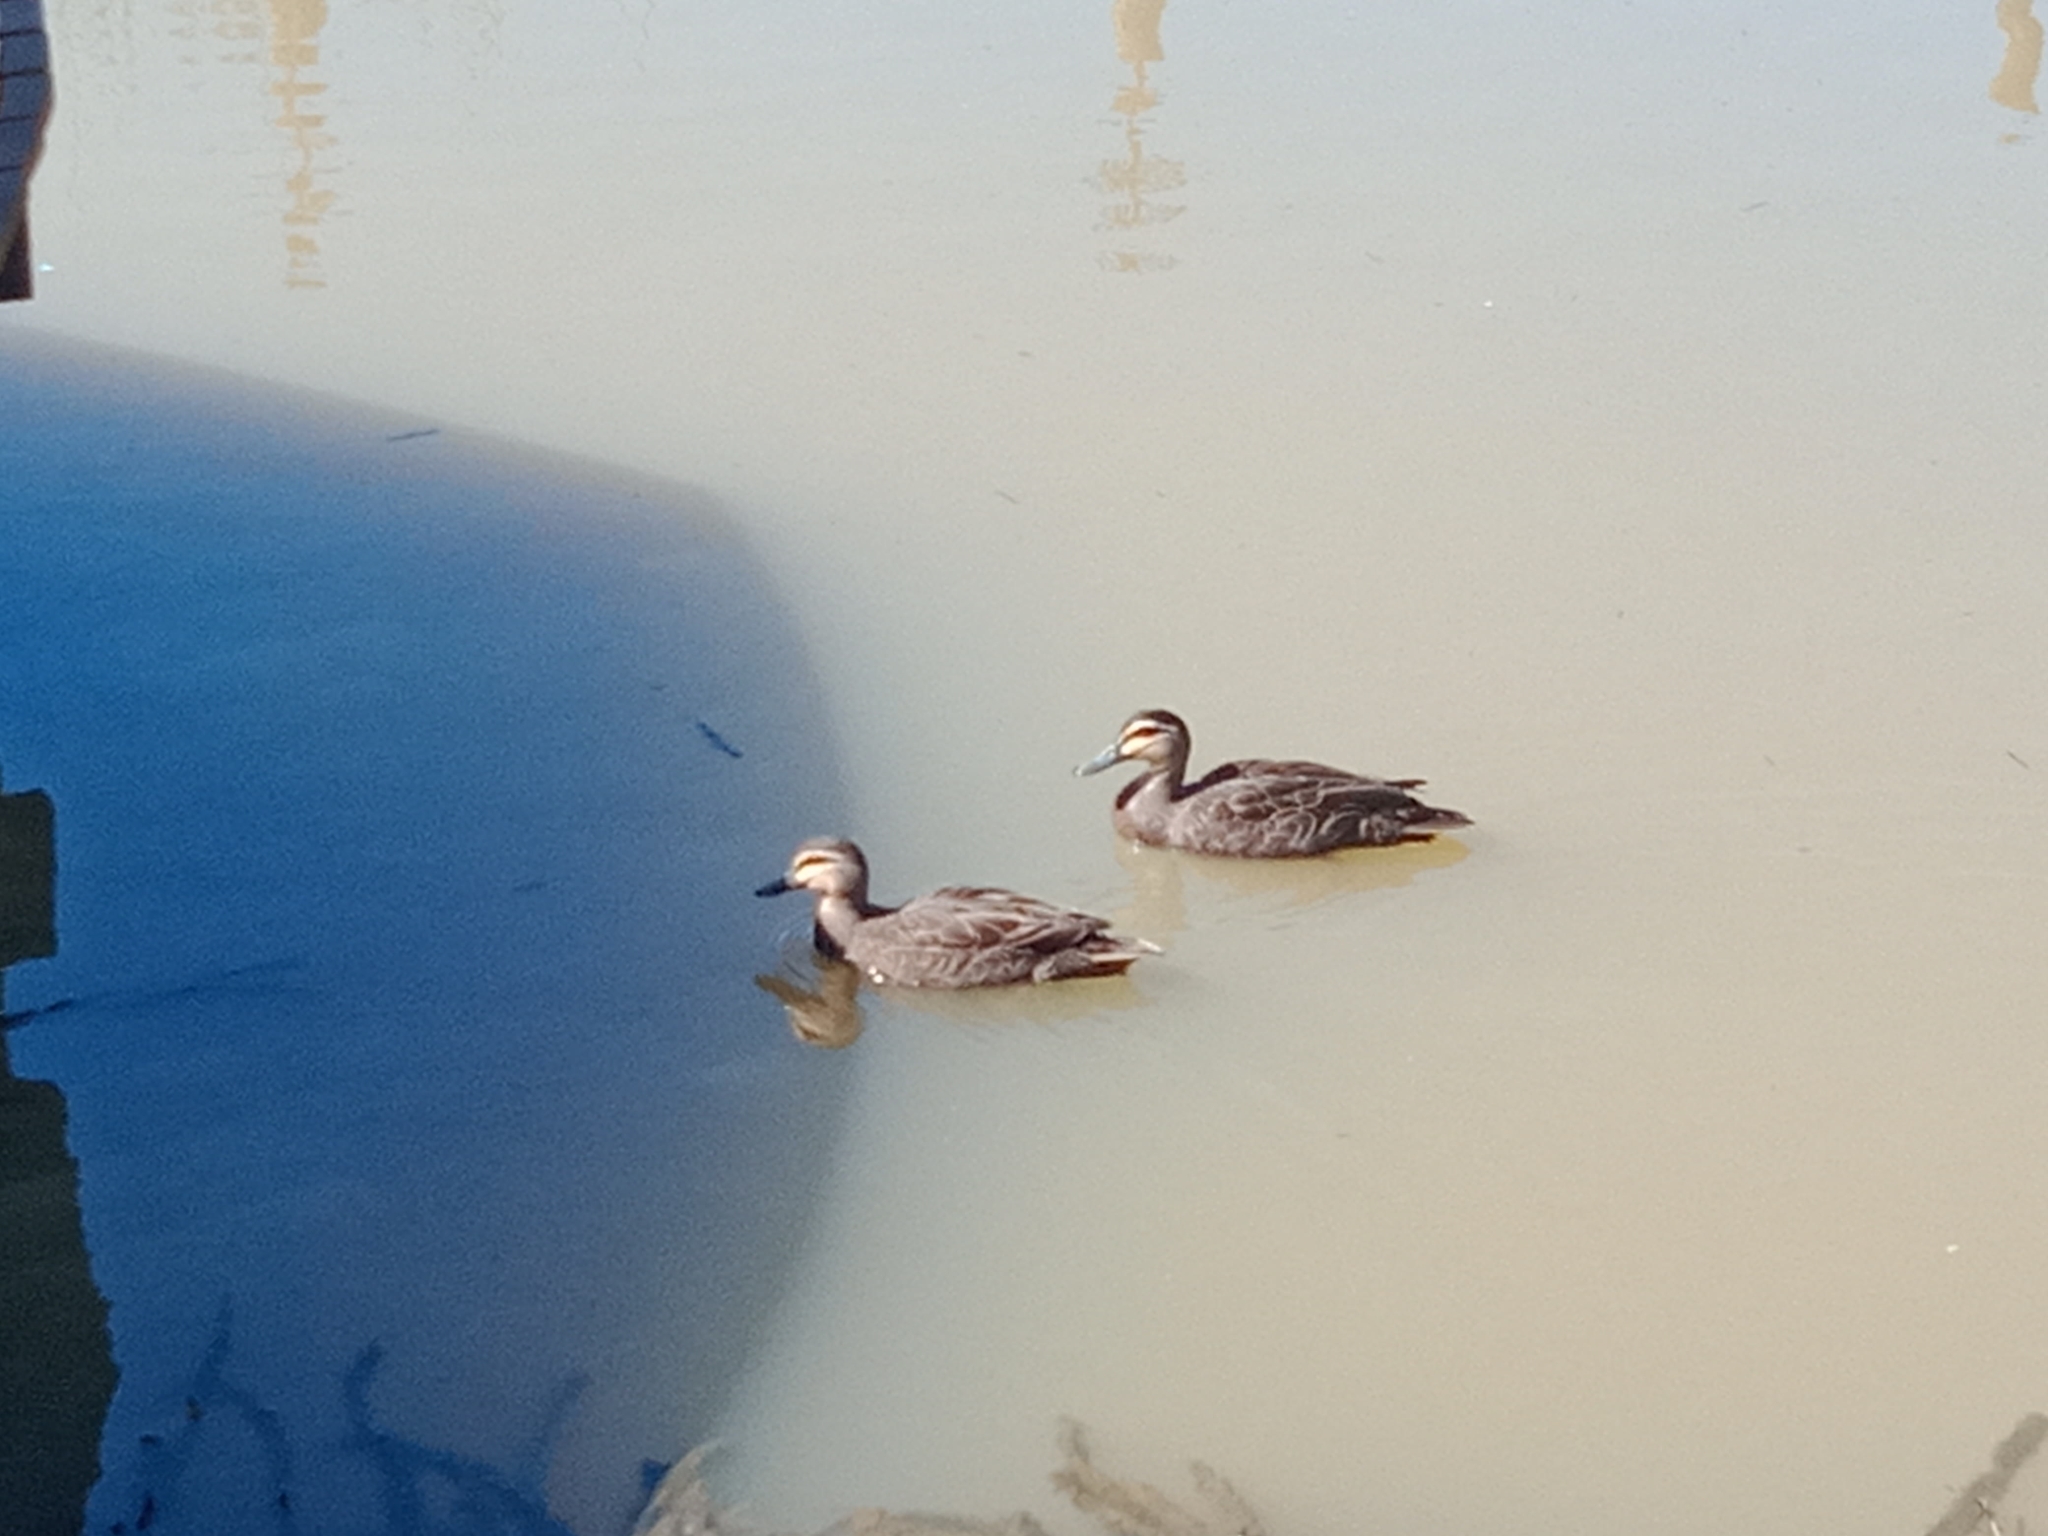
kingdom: Animalia
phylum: Chordata
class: Aves
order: Anseriformes
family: Anatidae
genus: Anas
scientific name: Anas superciliosa
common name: Pacific black duck
